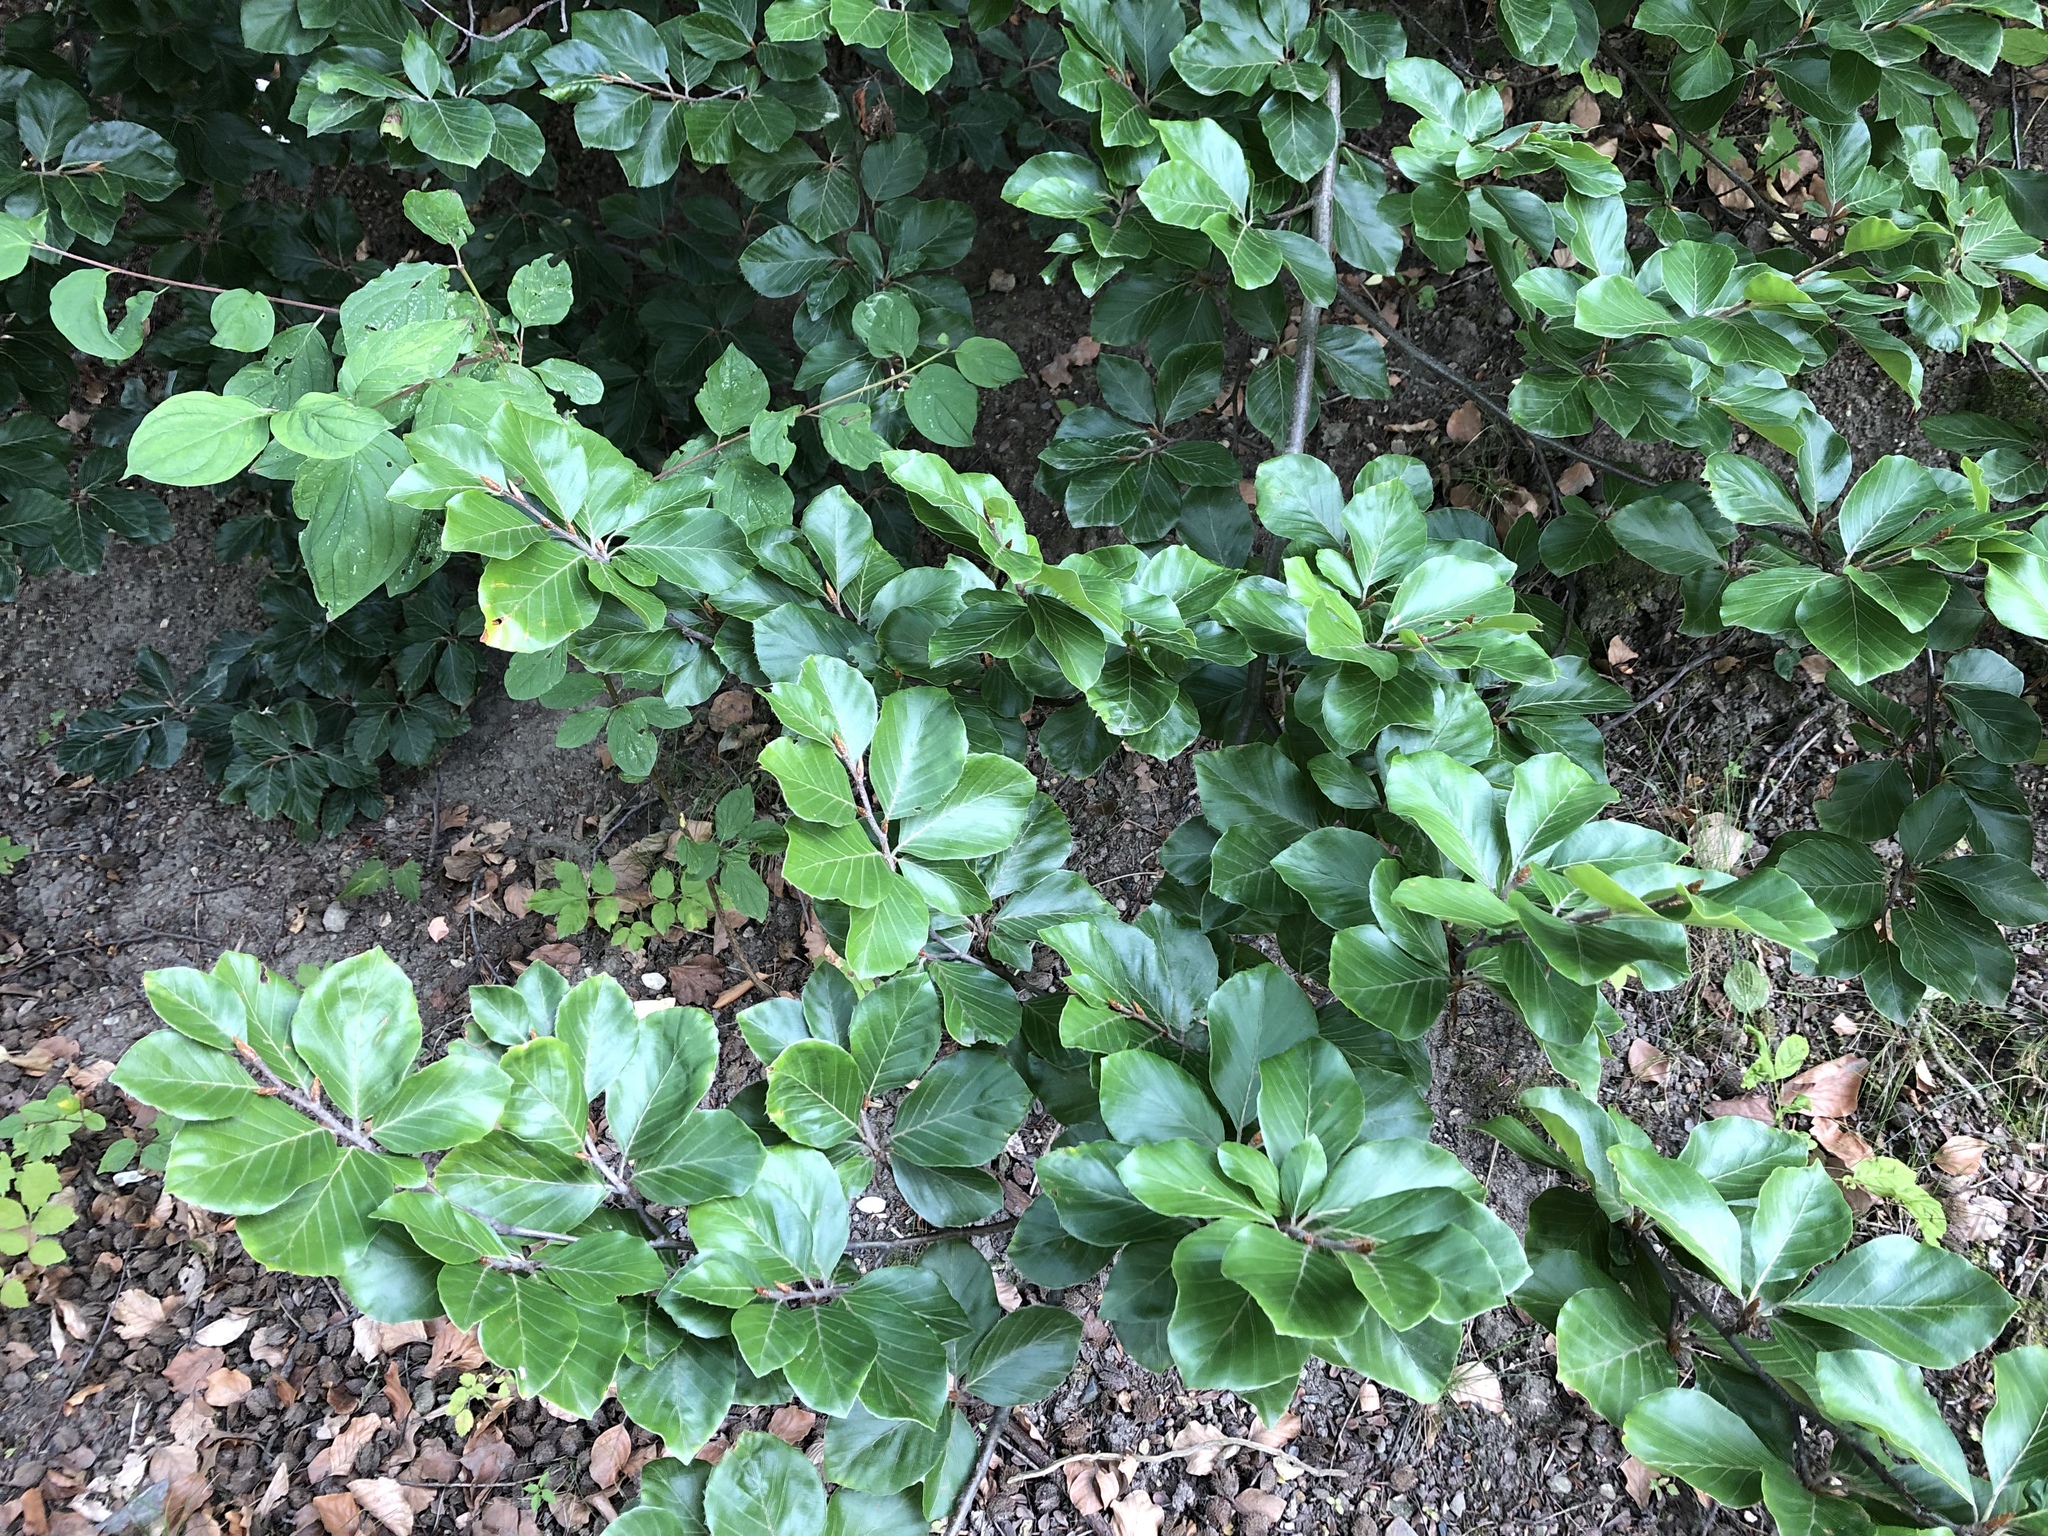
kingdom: Plantae
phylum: Tracheophyta
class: Magnoliopsida
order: Fagales
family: Fagaceae
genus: Fagus
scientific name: Fagus sylvatica
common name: Beech
